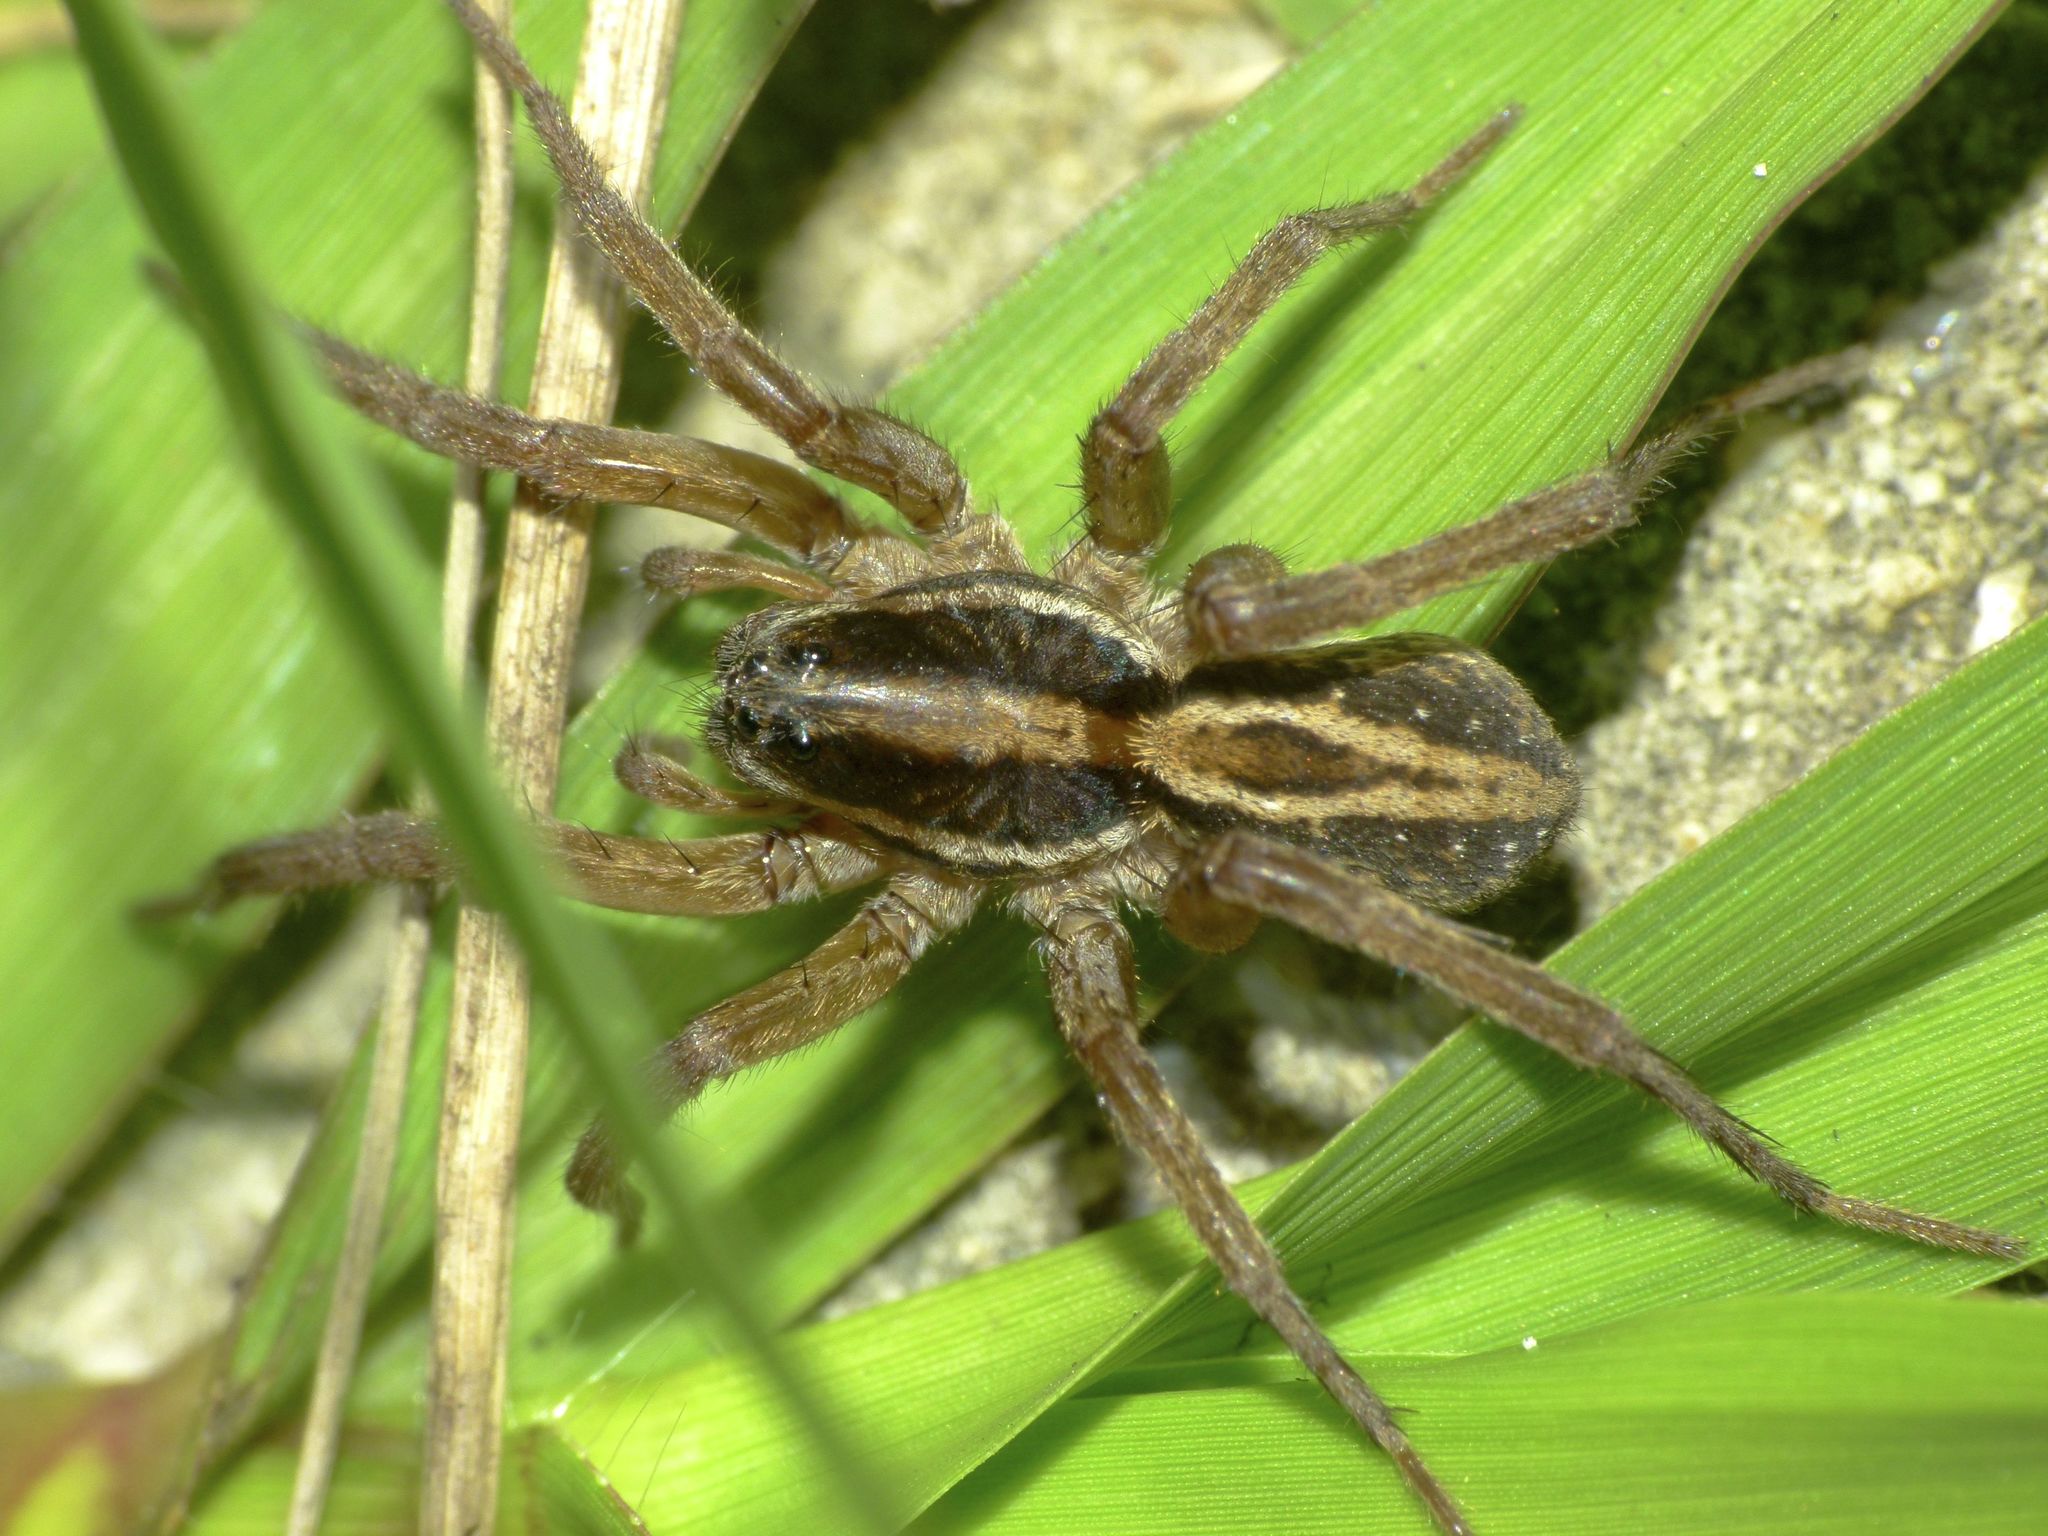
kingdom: Animalia
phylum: Arthropoda
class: Arachnida
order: Araneae
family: Lycosidae
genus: Venatrix
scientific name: Venatrix furcillata
